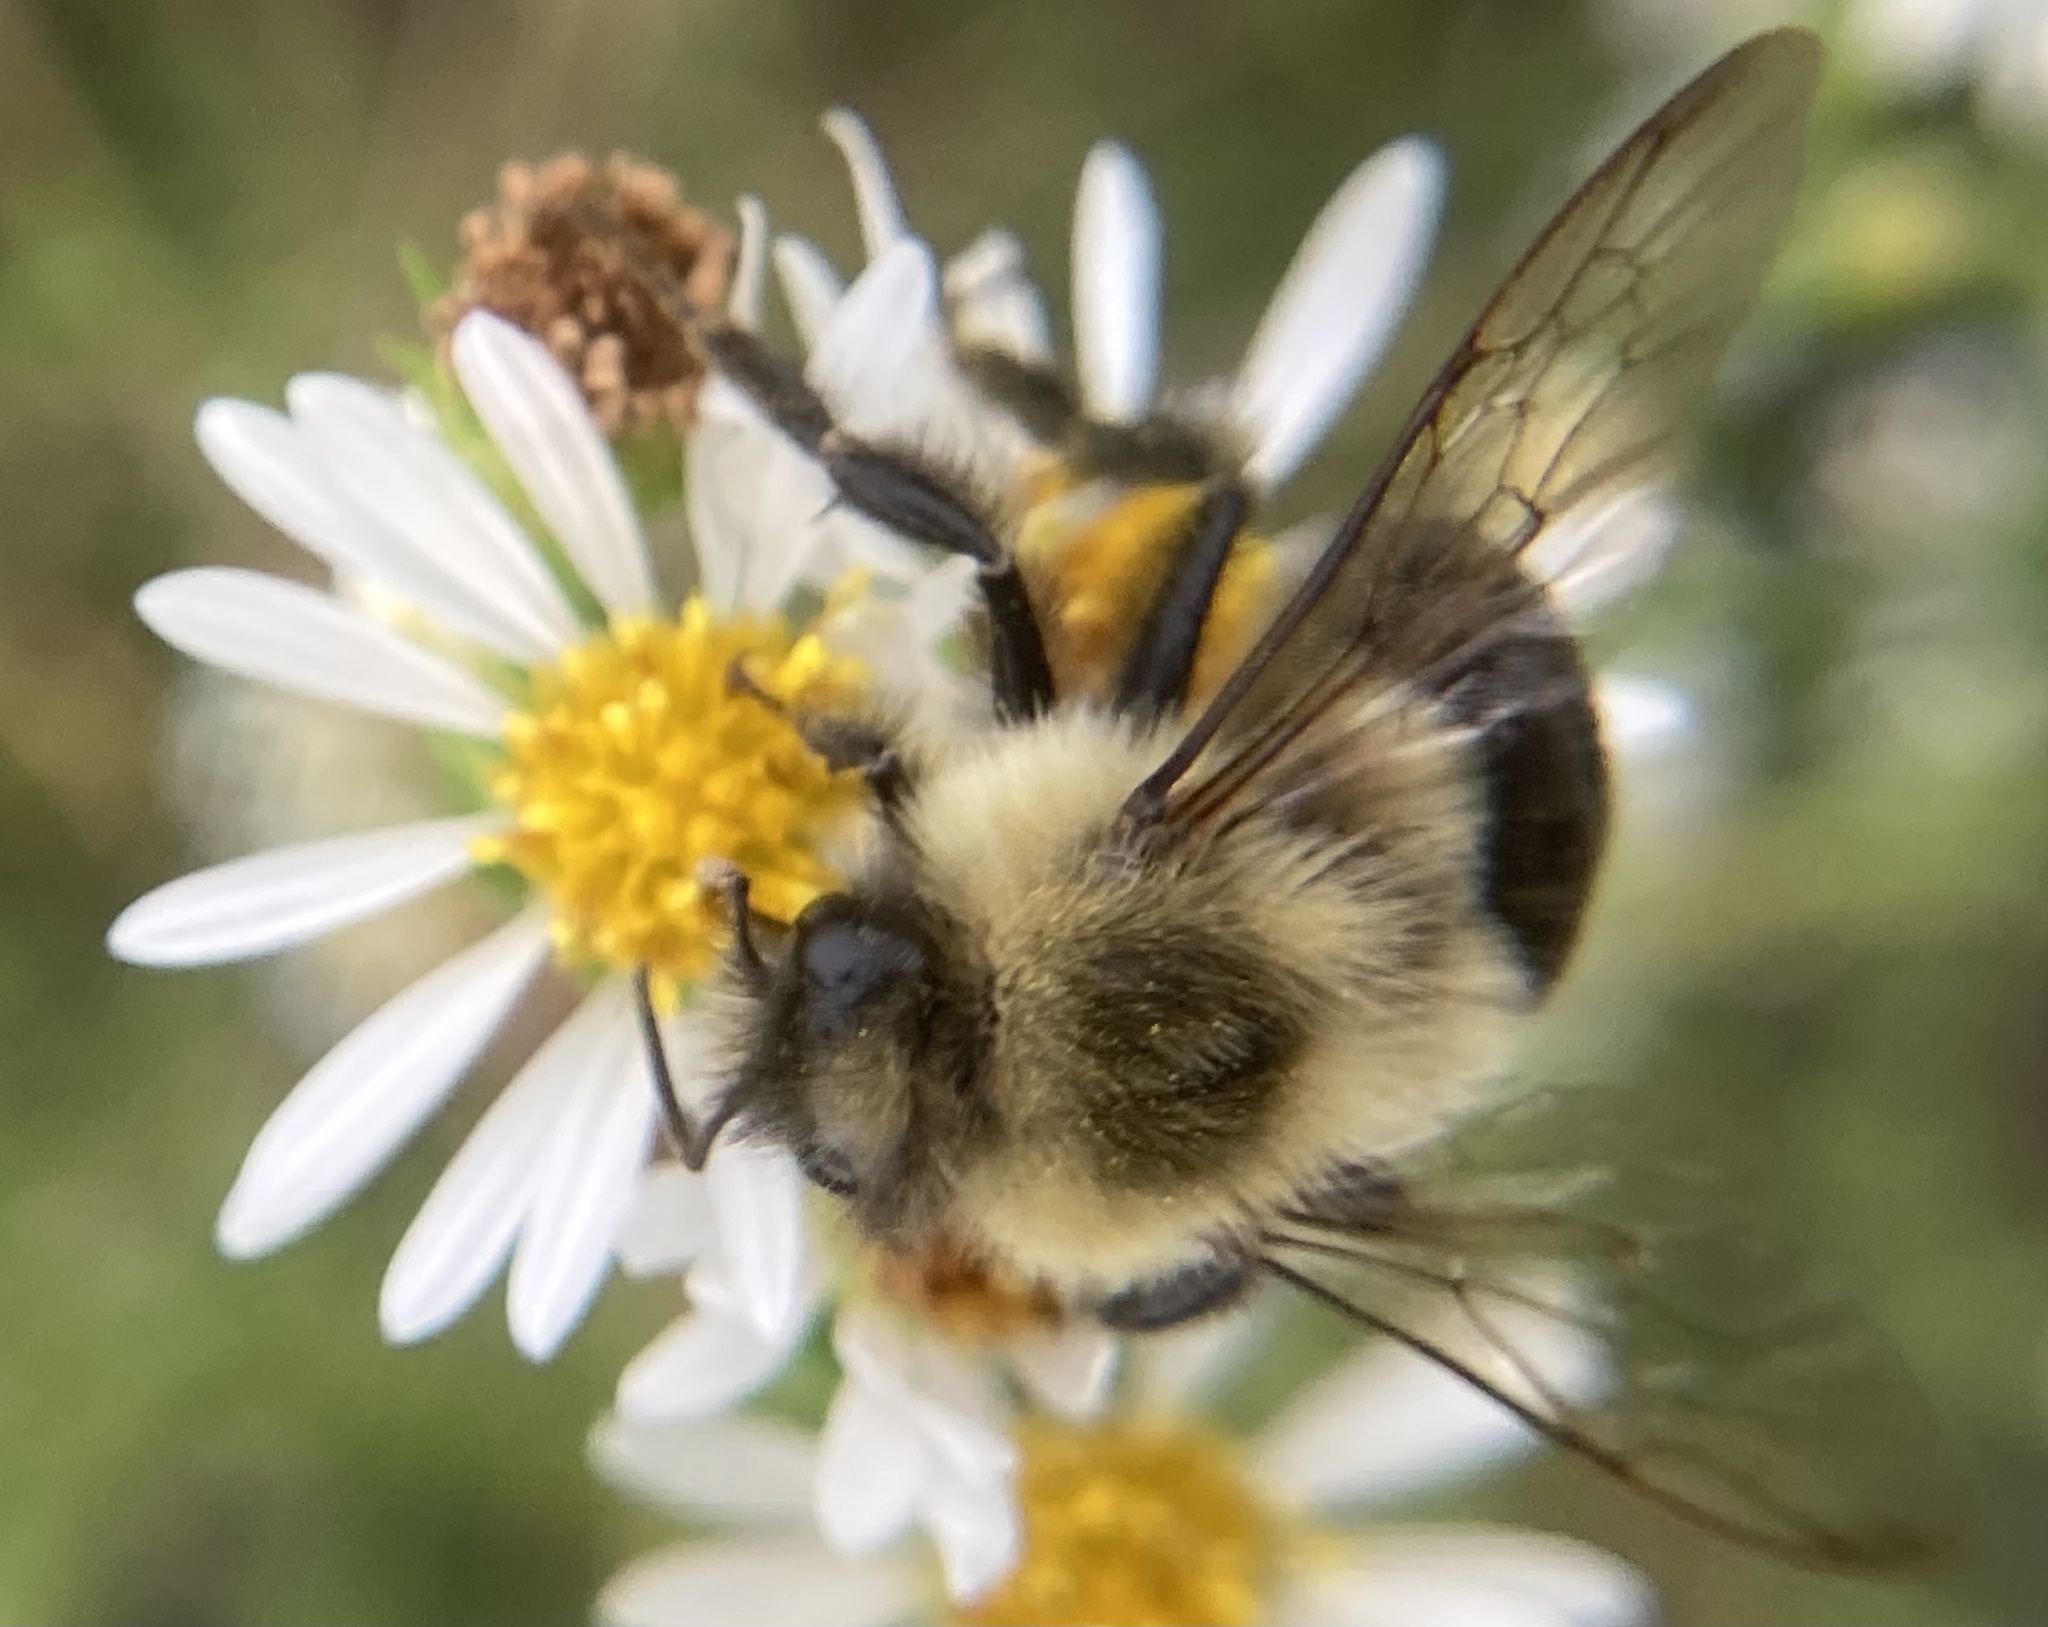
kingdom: Animalia
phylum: Arthropoda
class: Insecta
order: Hymenoptera
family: Apidae
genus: Bombus
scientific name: Bombus impatiens
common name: Common eastern bumble bee
